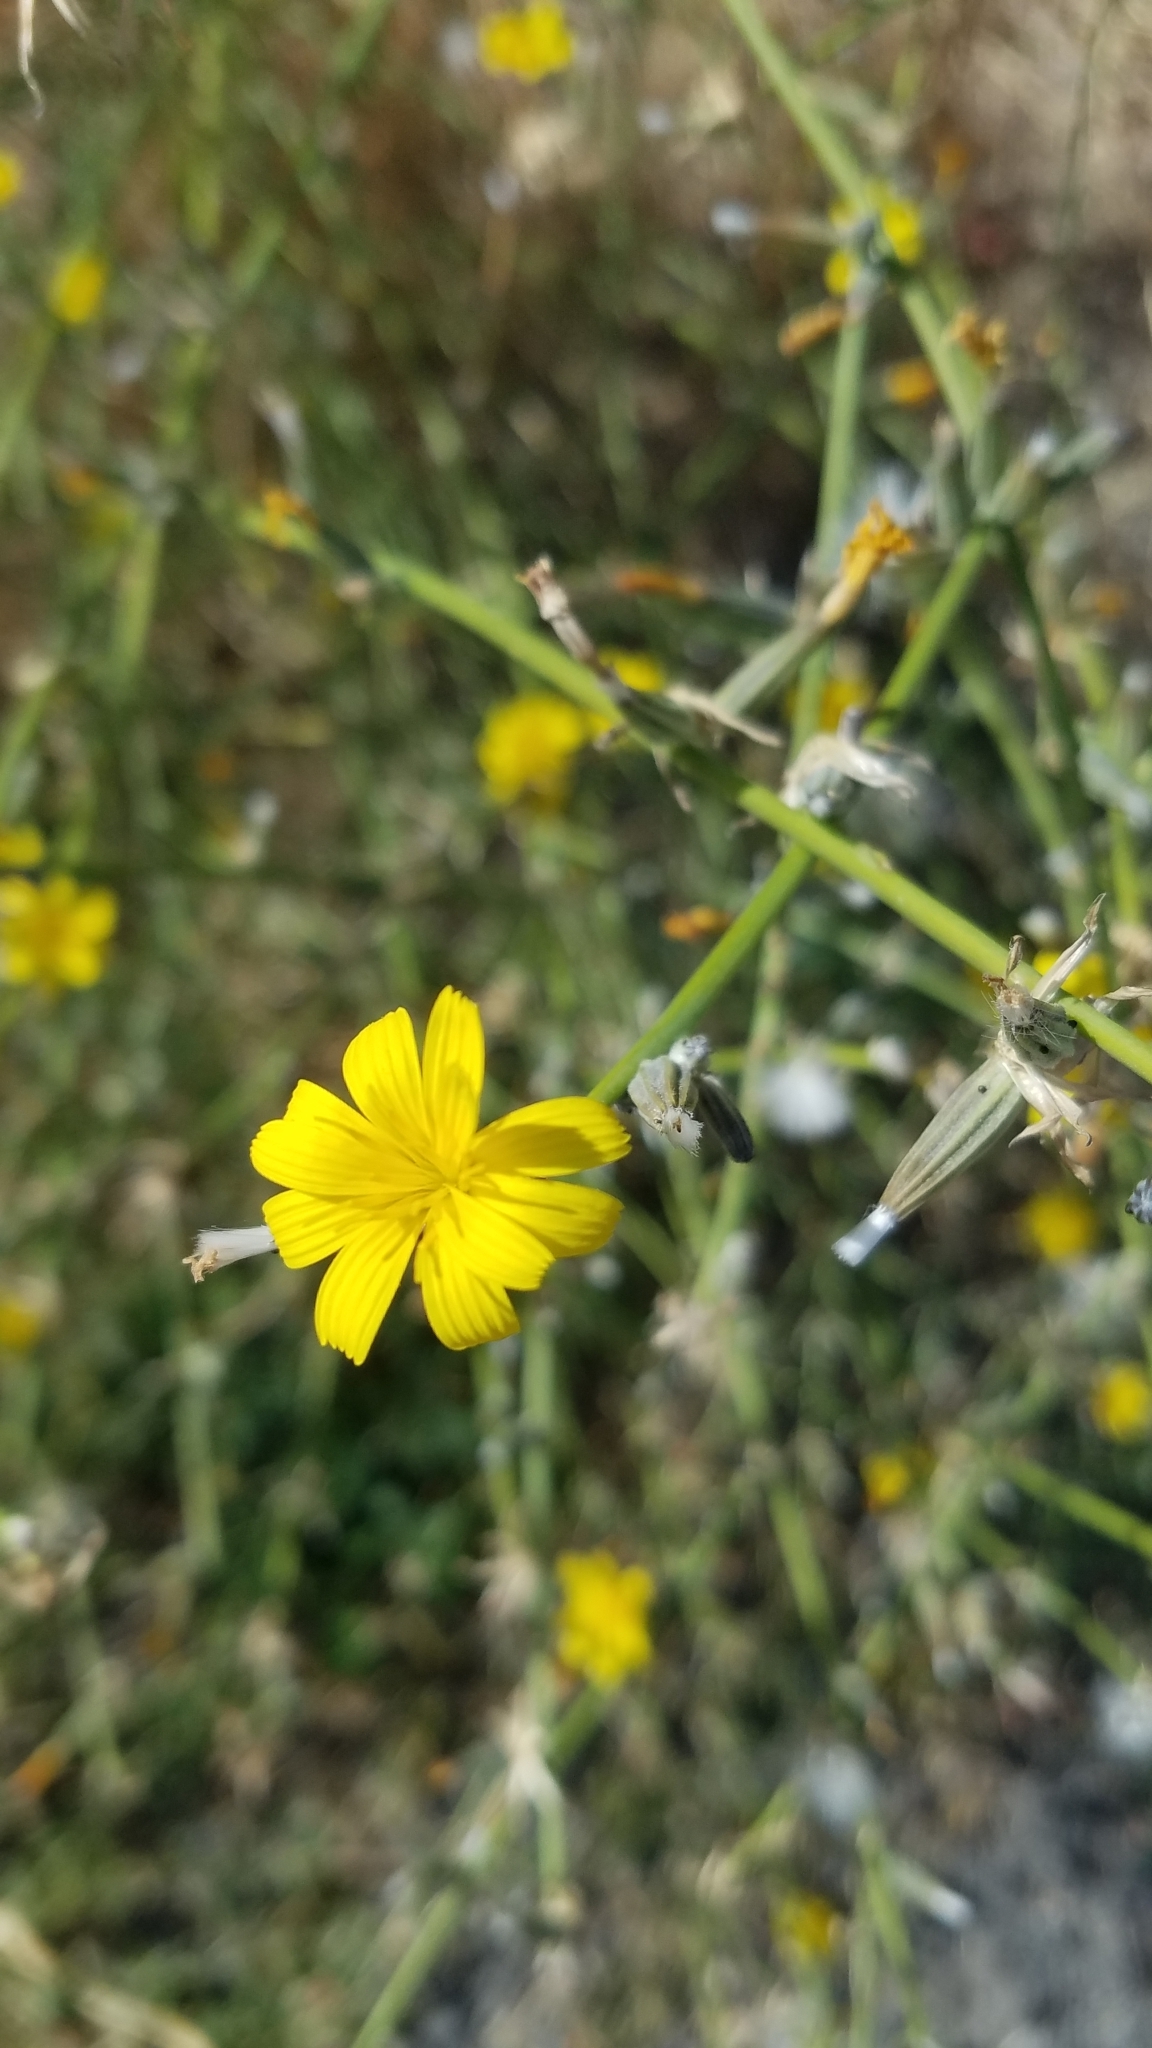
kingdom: Plantae
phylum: Tracheophyta
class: Magnoliopsida
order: Asterales
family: Asteraceae
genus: Chondrilla
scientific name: Chondrilla juncea
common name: Skeleton weed
